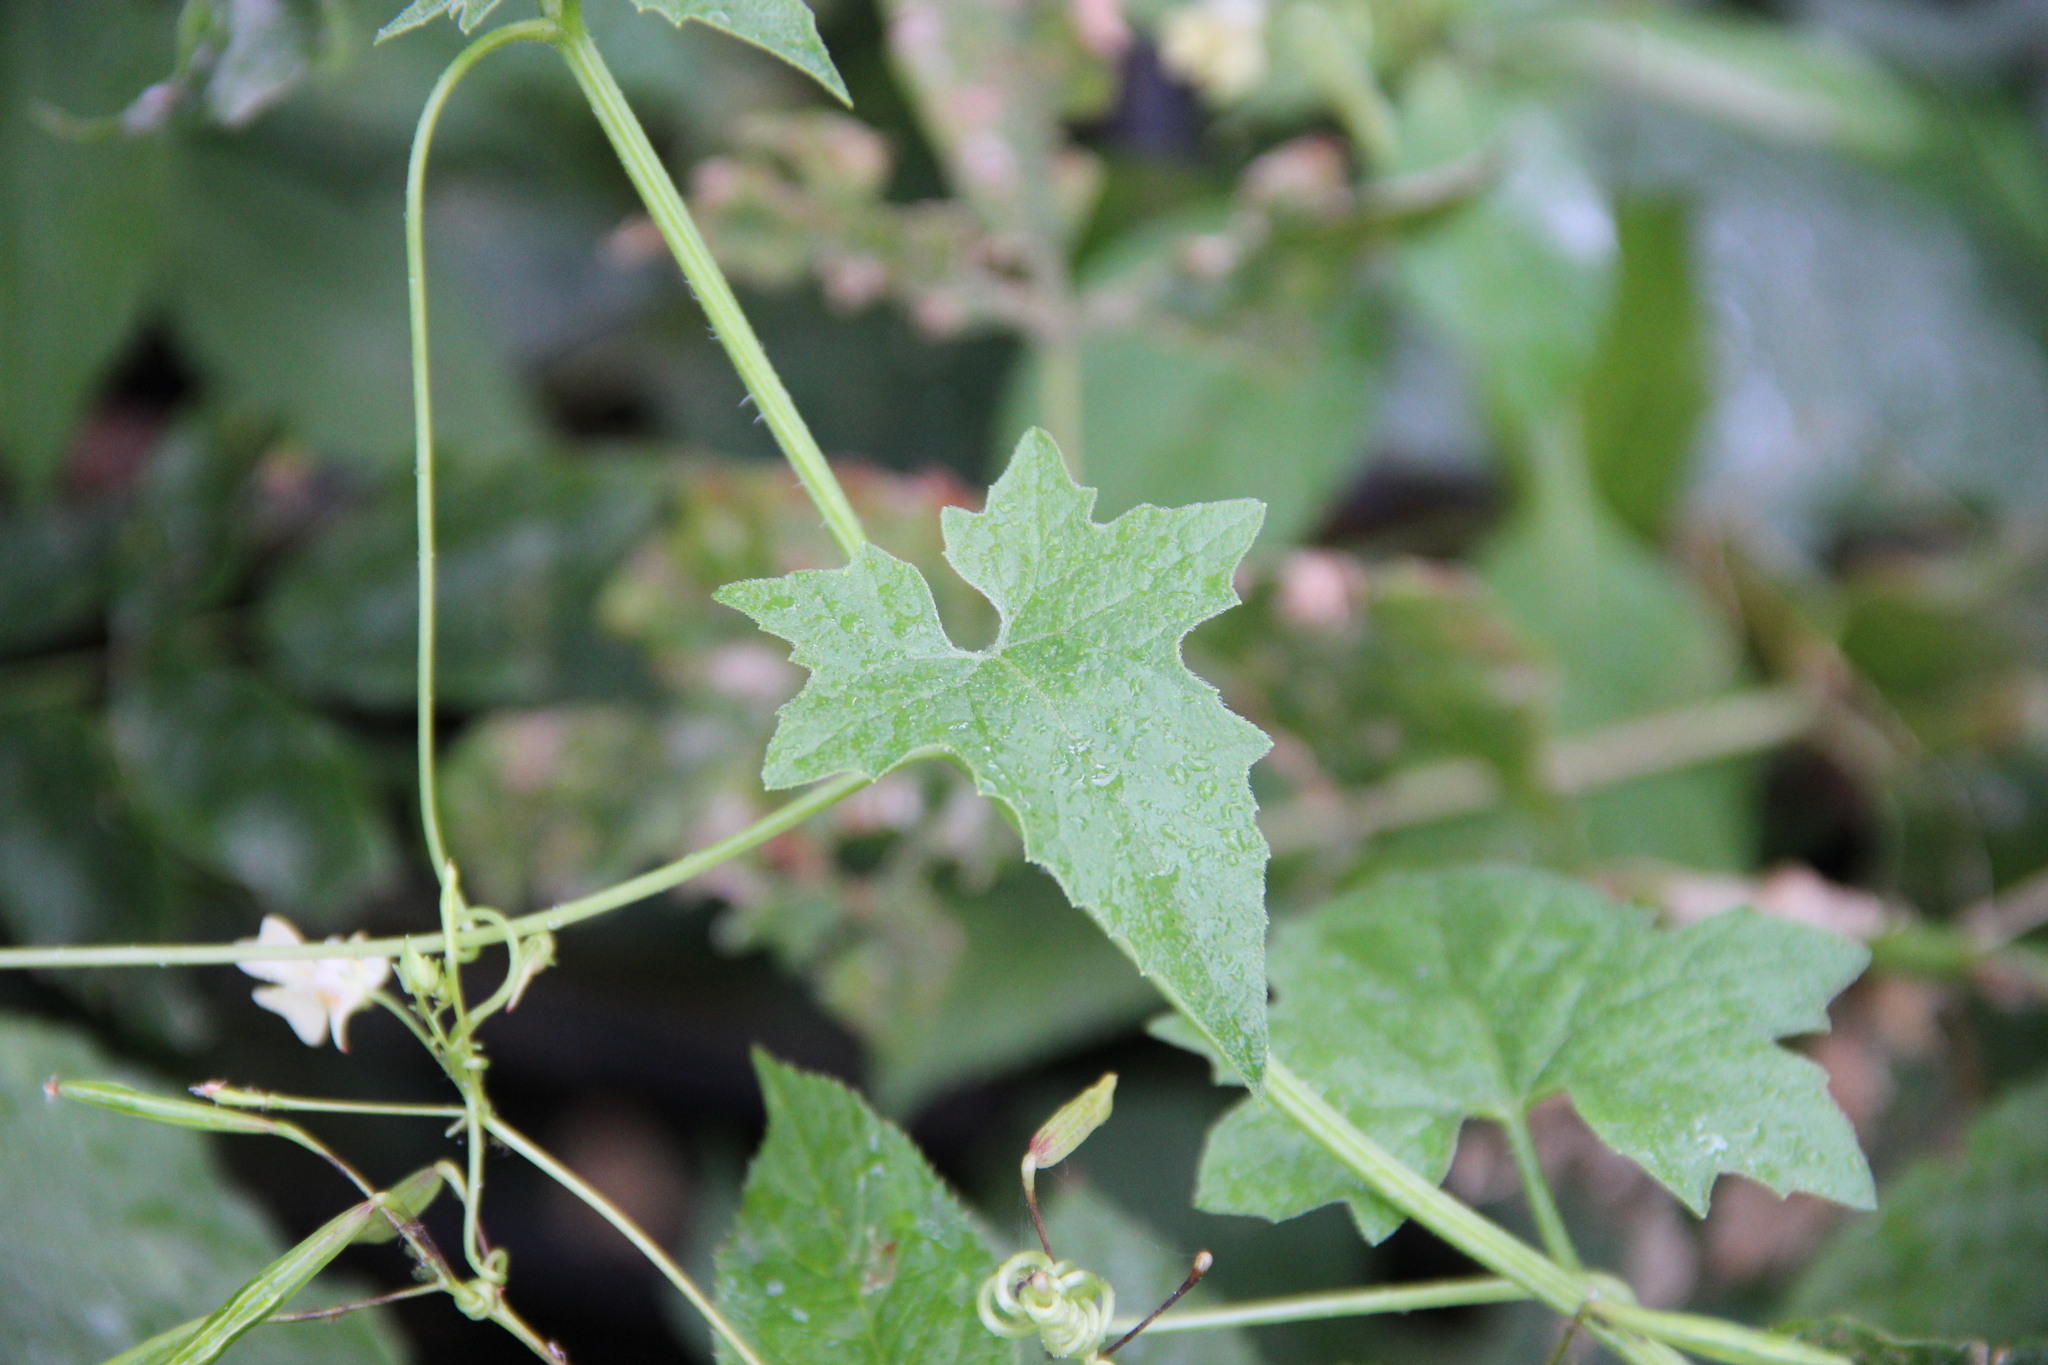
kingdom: Plantae
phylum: Tracheophyta
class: Magnoliopsida
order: Cucurbitales
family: Cucurbitaceae
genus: Bryonia
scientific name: Bryonia alba
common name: White bryony
